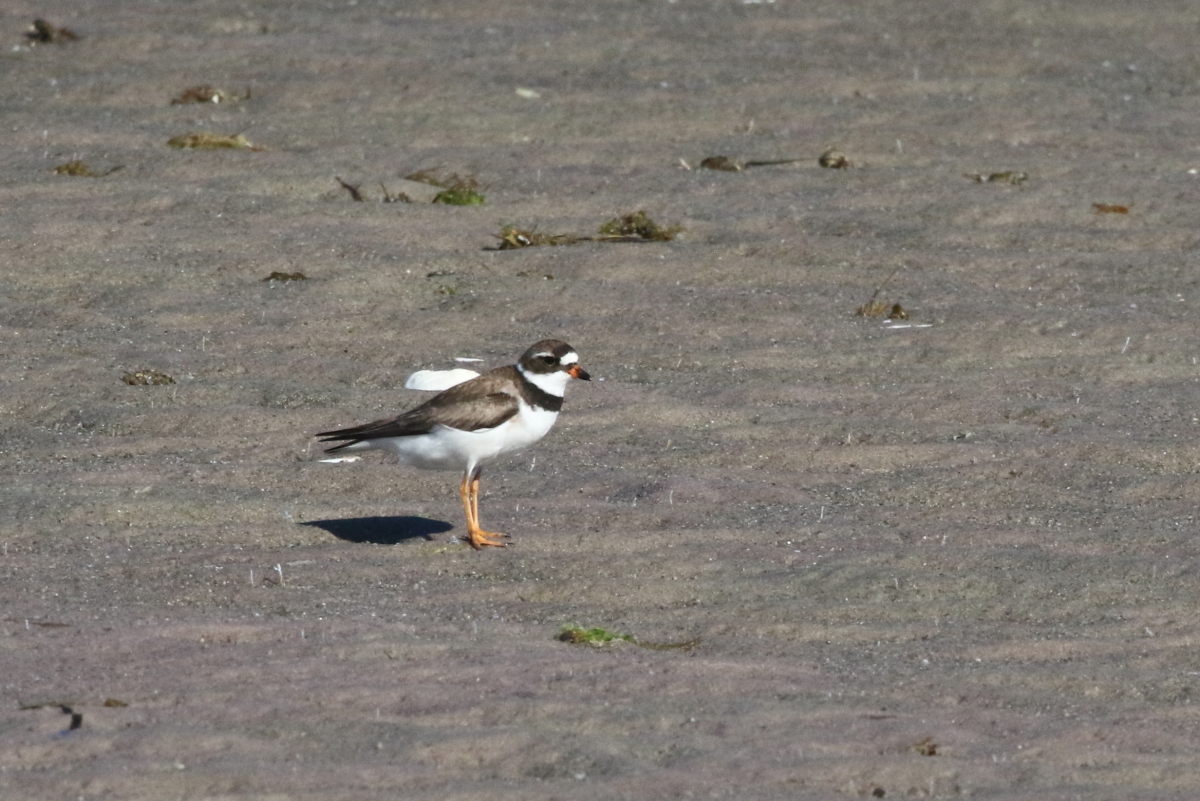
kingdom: Animalia
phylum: Chordata
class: Aves
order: Charadriiformes
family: Charadriidae
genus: Charadrius
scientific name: Charadrius semipalmatus
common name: Semipalmated plover
